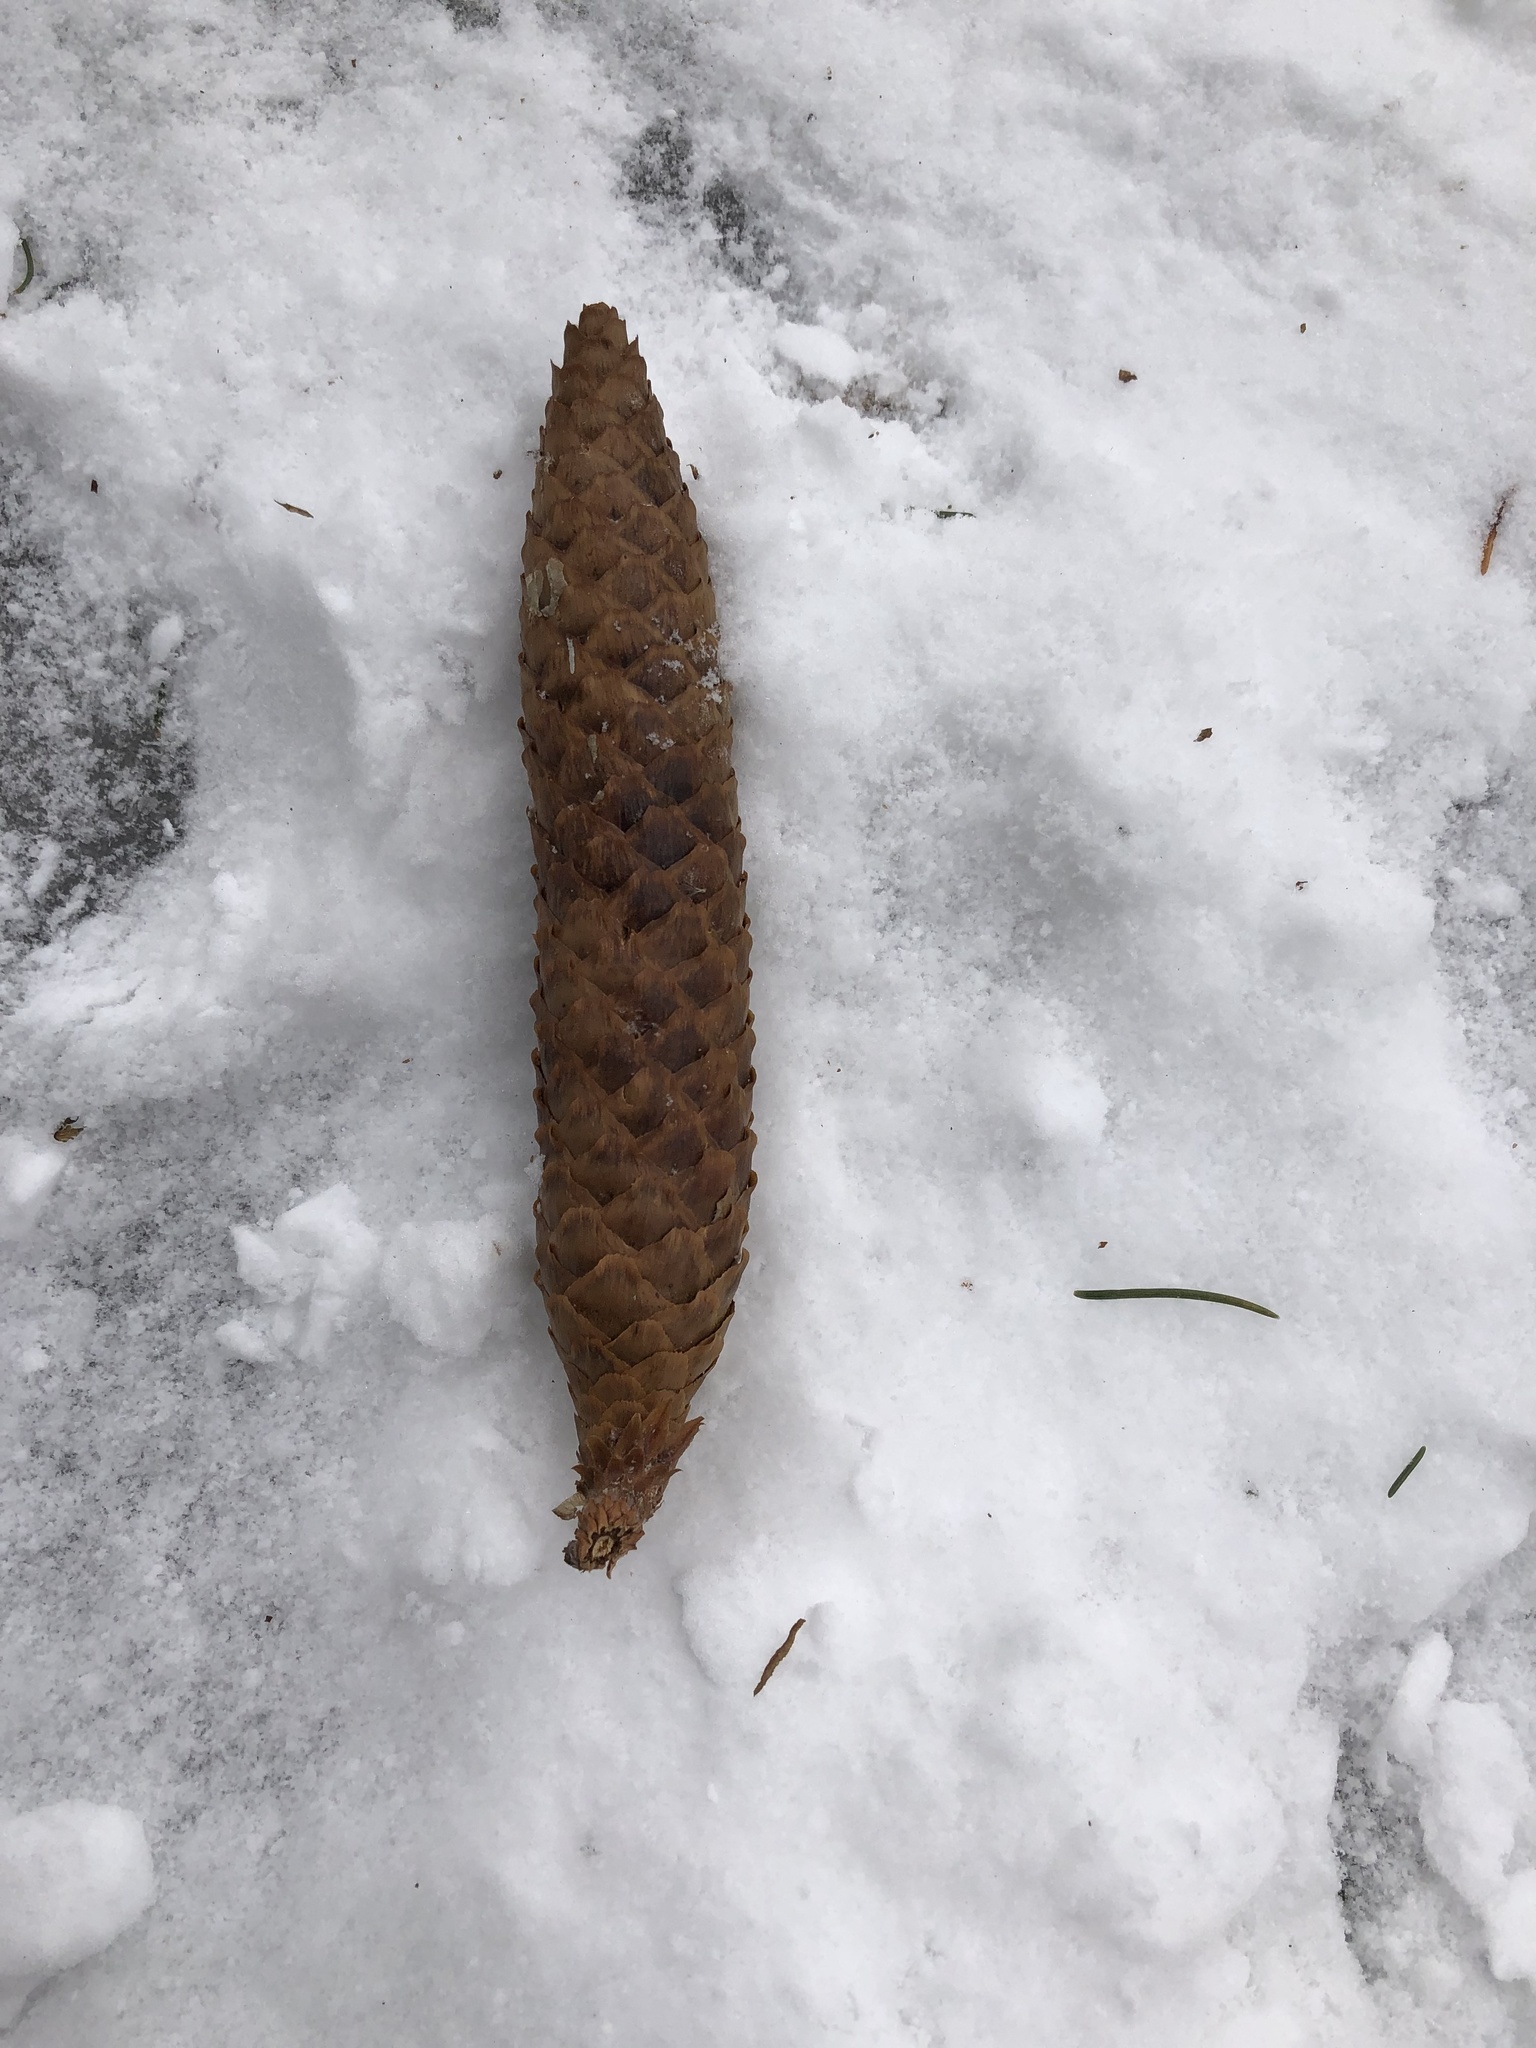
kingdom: Plantae
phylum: Tracheophyta
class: Pinopsida
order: Pinales
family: Pinaceae
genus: Picea
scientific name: Picea abies
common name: Norway spruce
